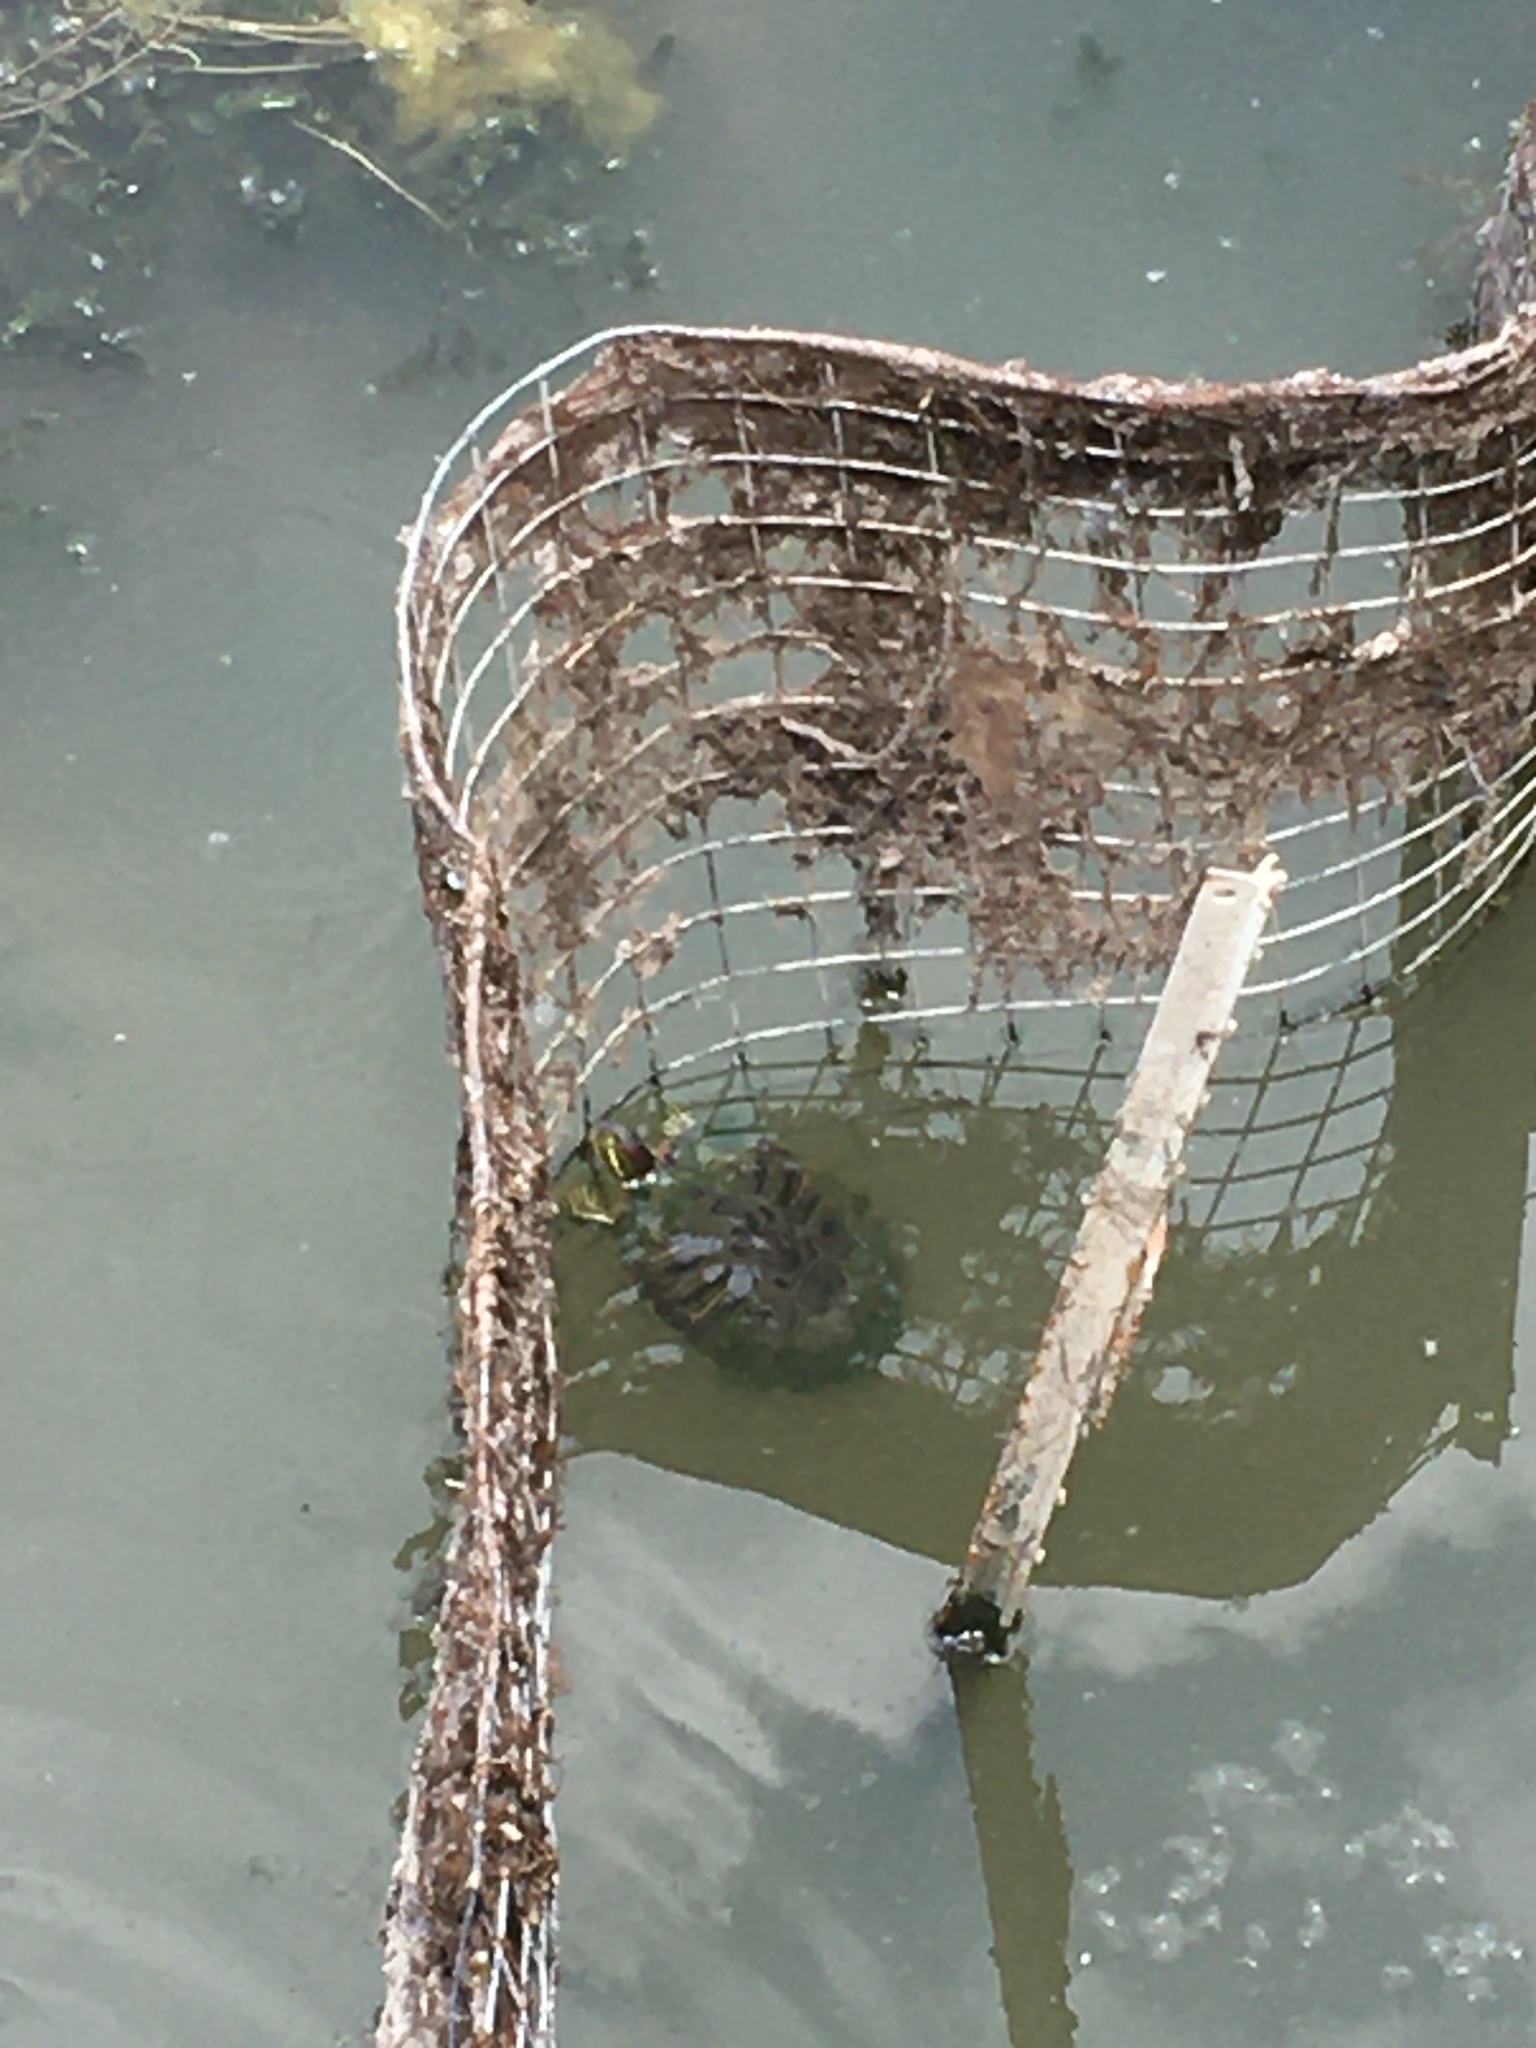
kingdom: Animalia
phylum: Chordata
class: Testudines
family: Emydidae
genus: Trachemys
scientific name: Trachemys scripta
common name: Slider
